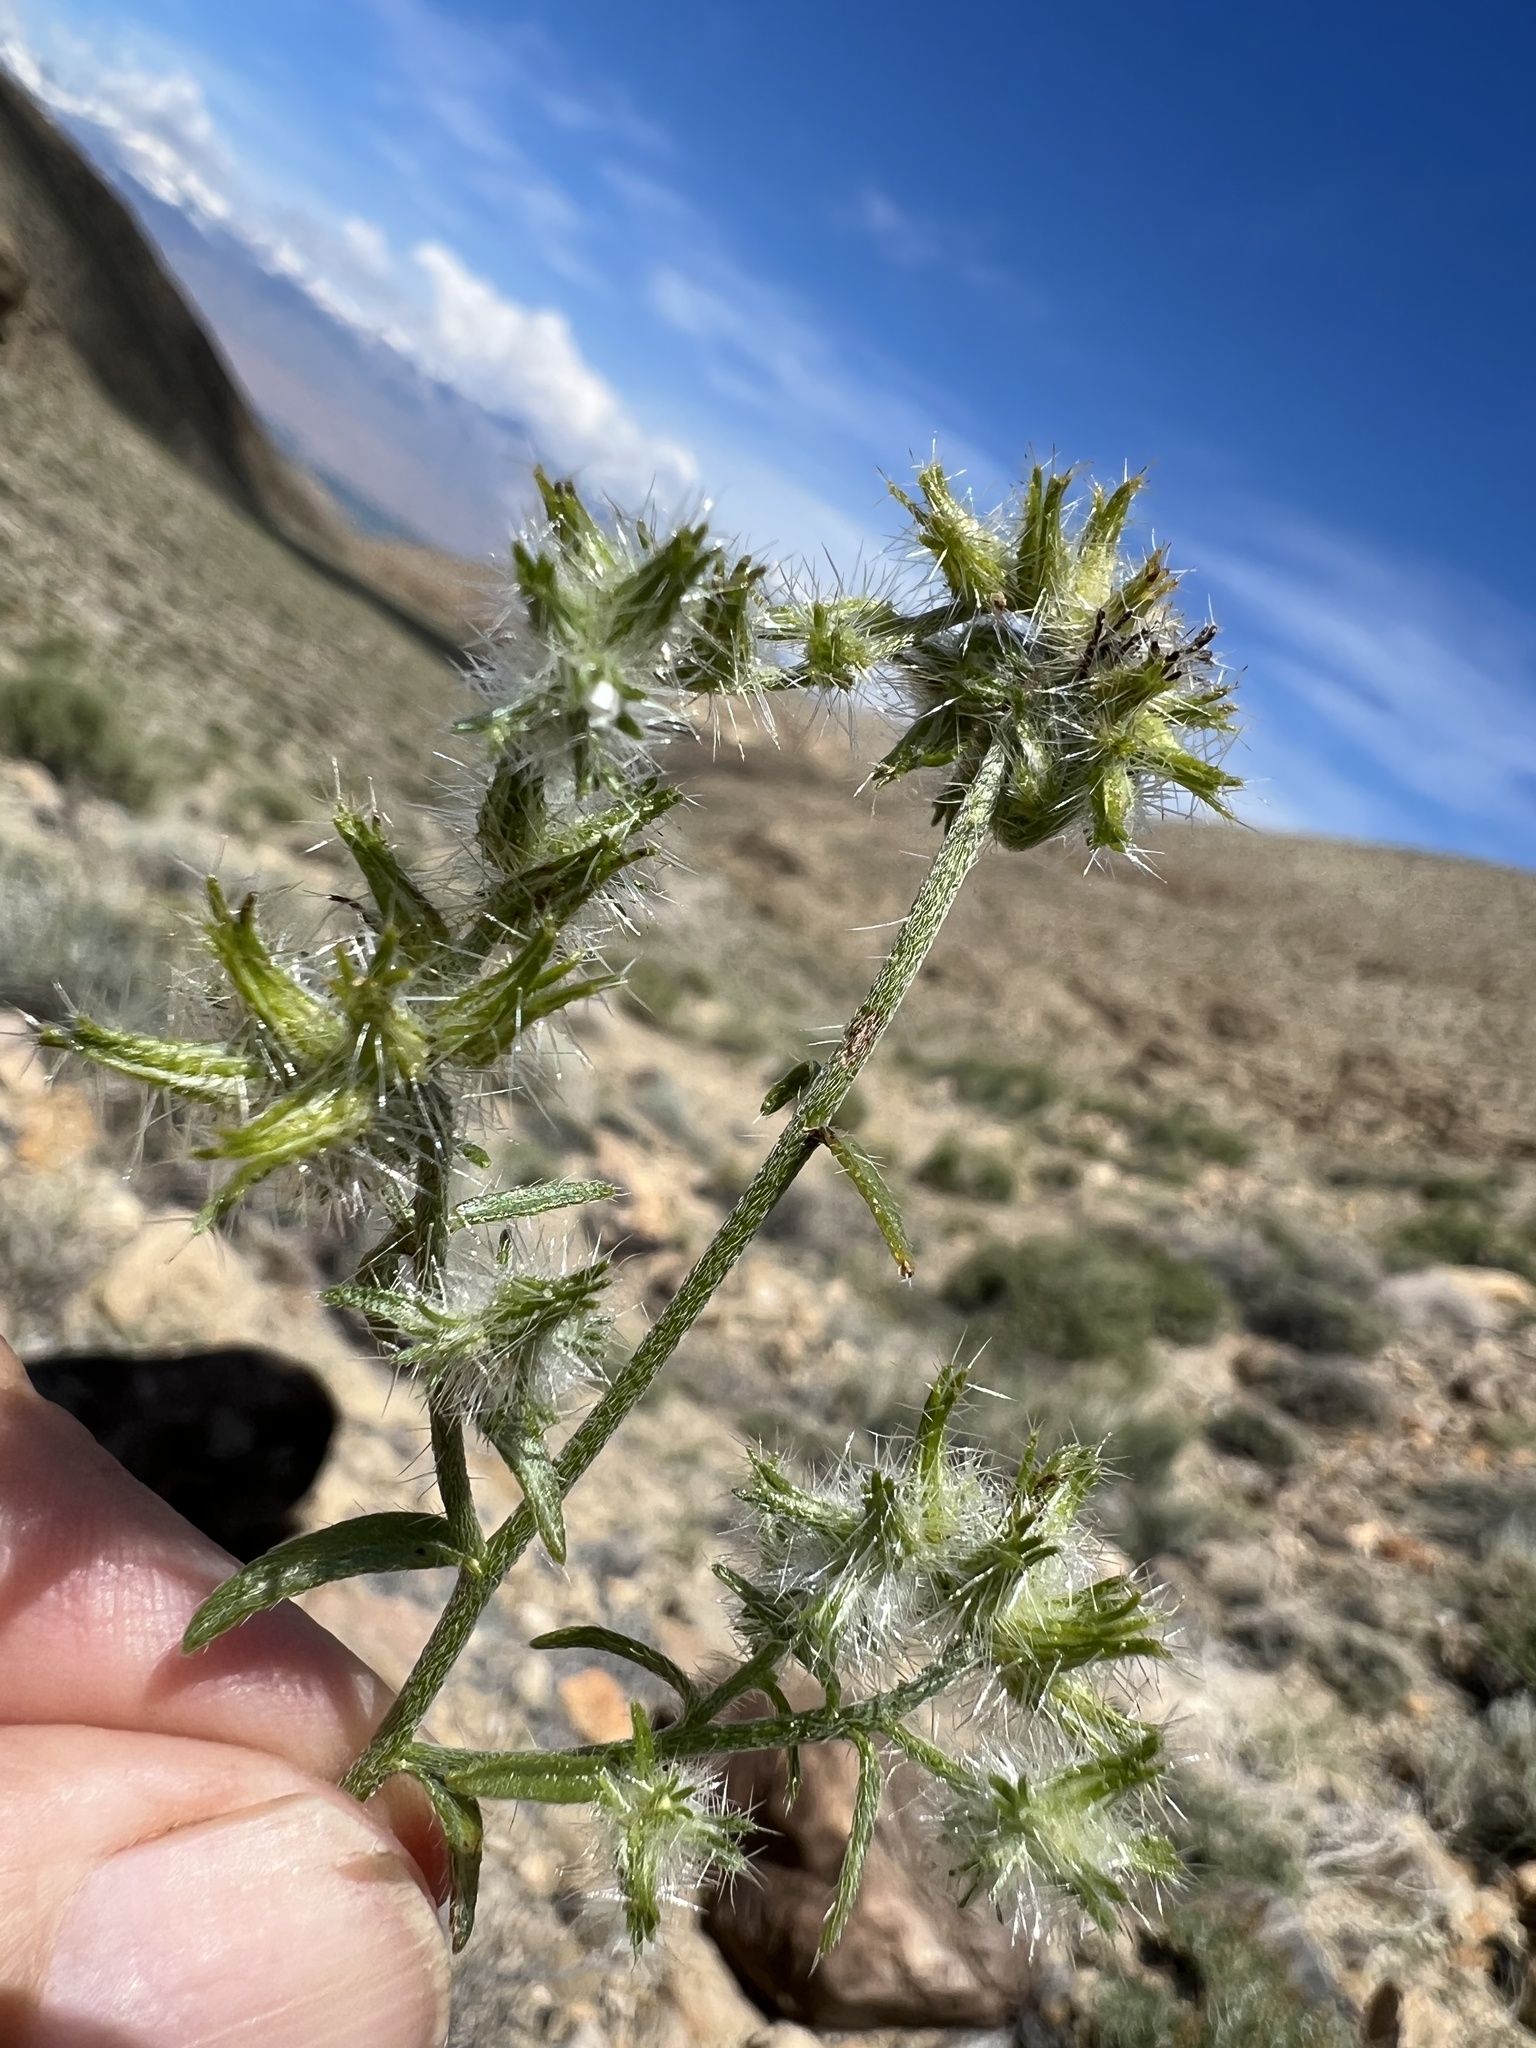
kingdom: Plantae
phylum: Tracheophyta
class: Magnoliopsida
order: Boraginales
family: Boraginaceae
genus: Cryptantha
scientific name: Cryptantha nevadensis
